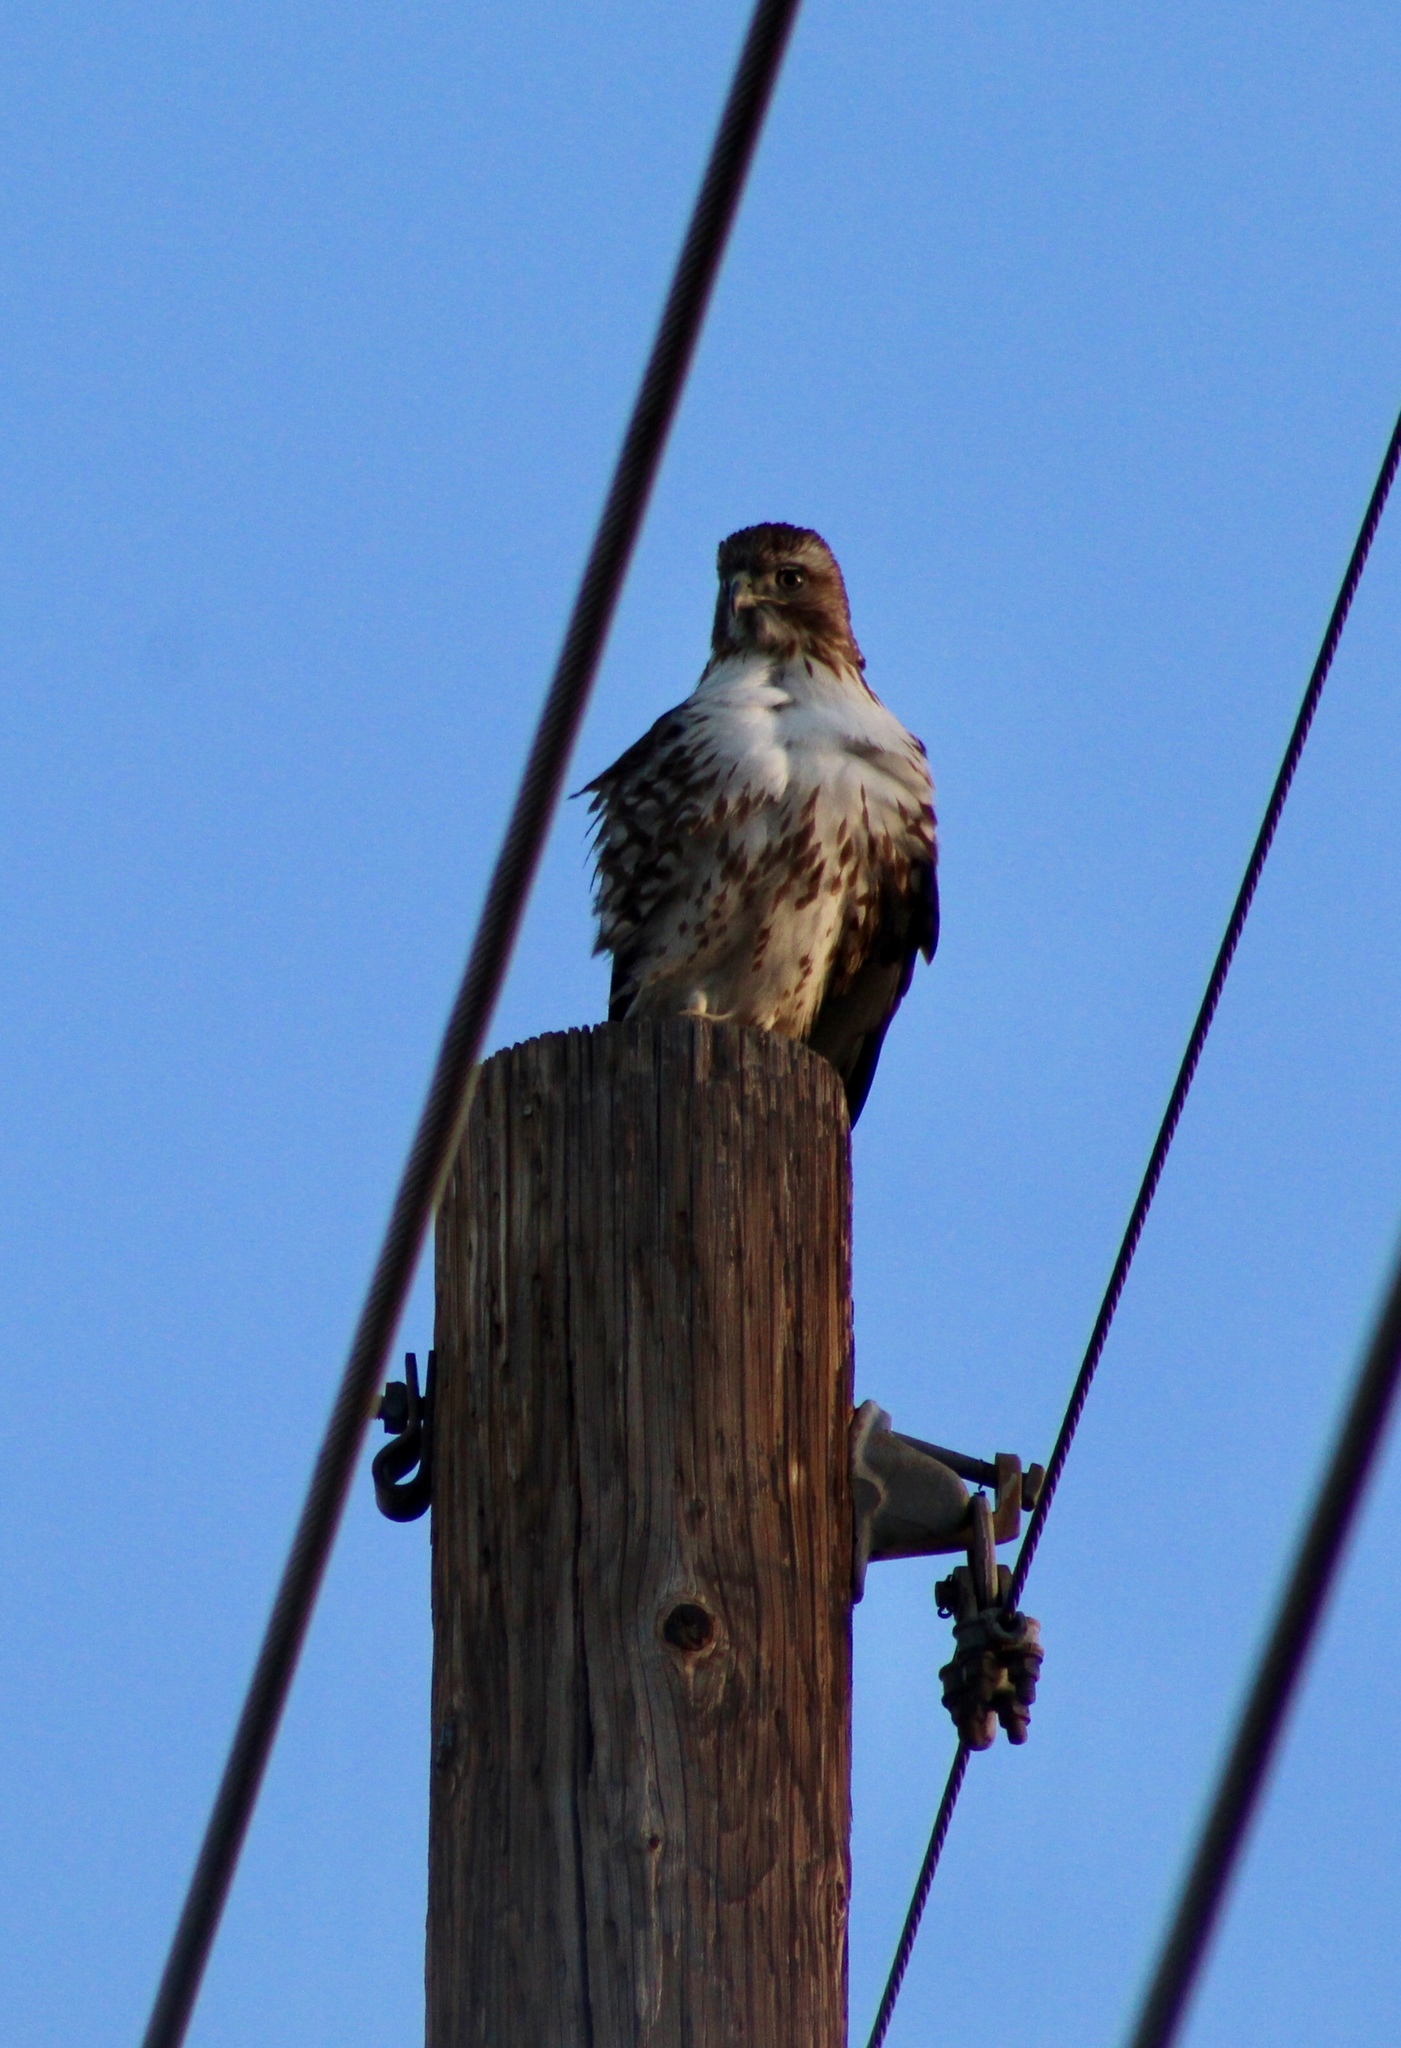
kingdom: Animalia
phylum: Chordata
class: Aves
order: Accipitriformes
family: Accipitridae
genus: Buteo
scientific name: Buteo jamaicensis
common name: Red-tailed hawk
